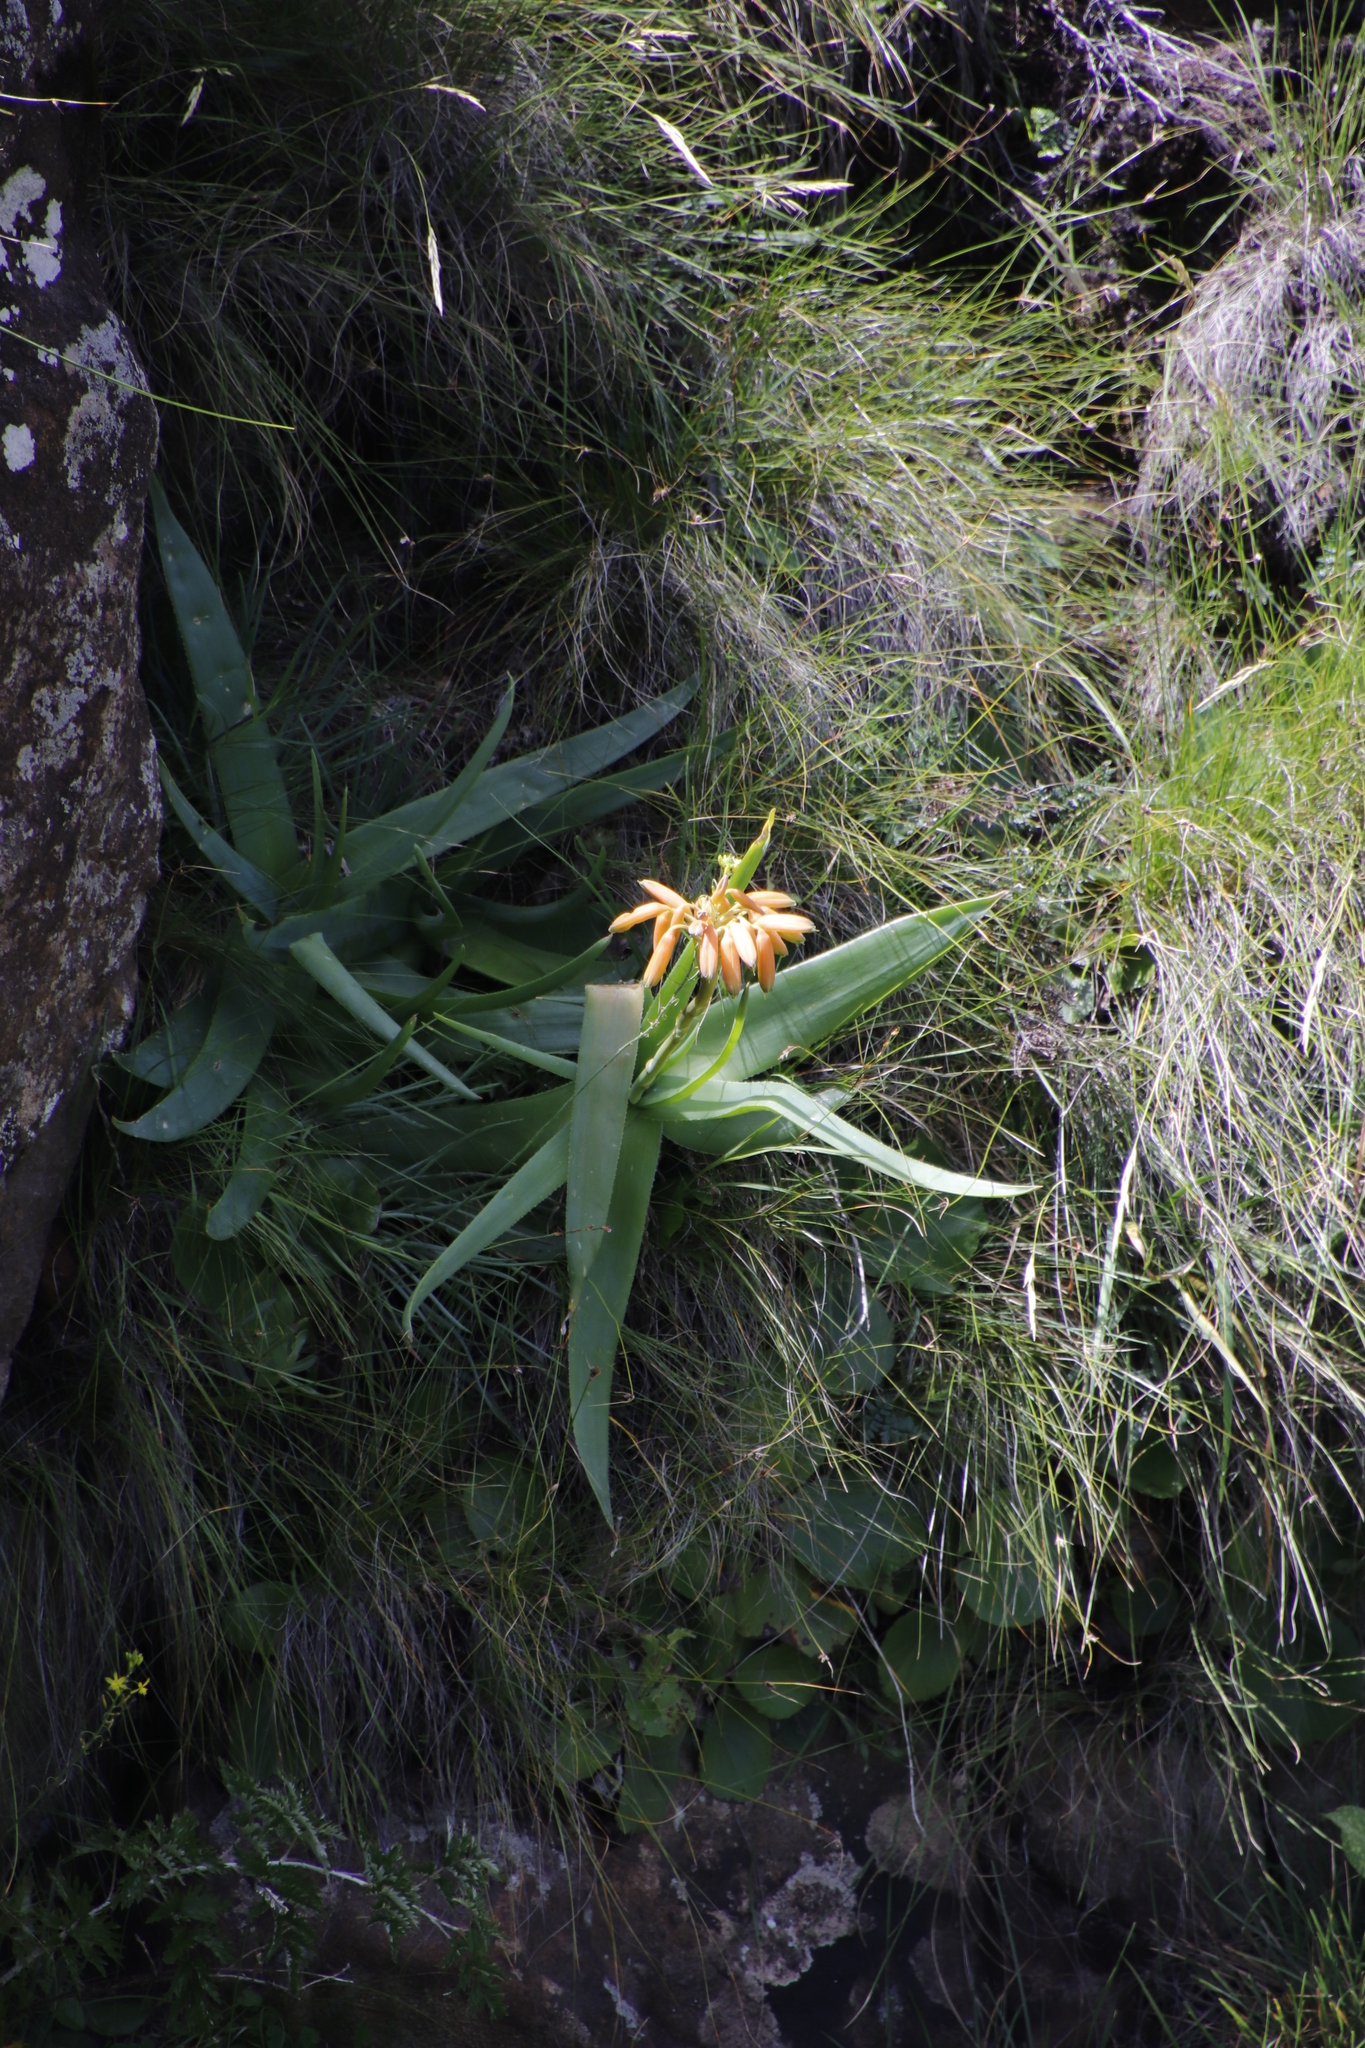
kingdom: Plantae
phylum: Tracheophyta
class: Liliopsida
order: Asparagales
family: Asphodelaceae
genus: Aloe
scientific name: Aloe ecklonis
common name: Ecklon's aloe
